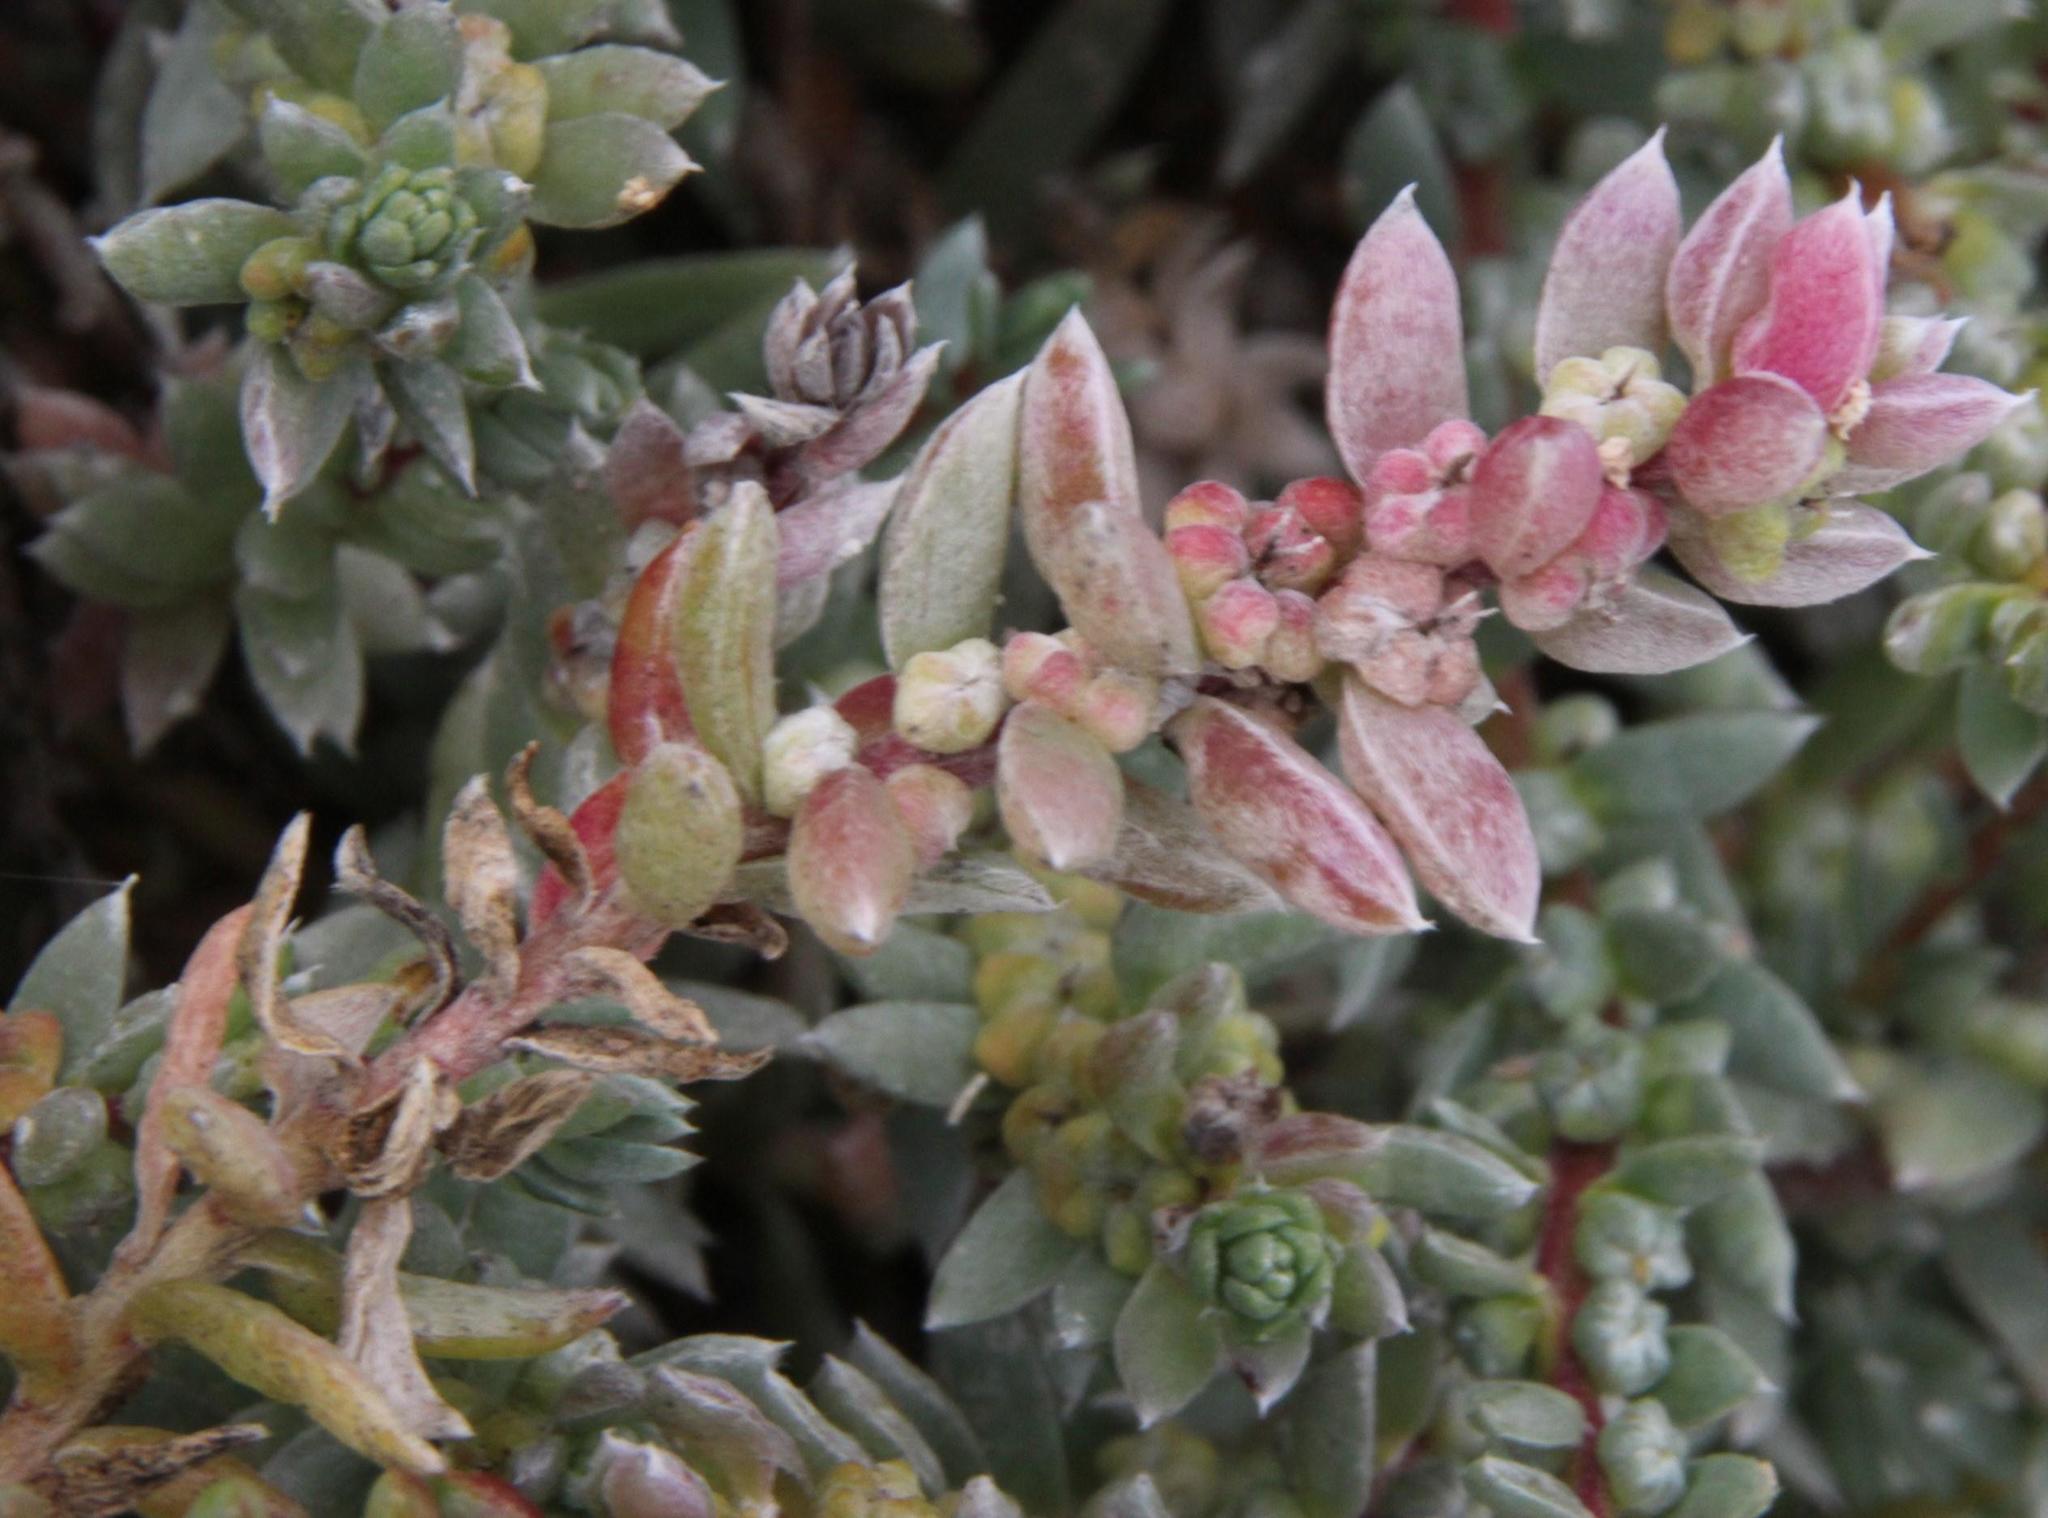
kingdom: Plantae
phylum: Tracheophyta
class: Magnoliopsida
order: Caryophyllales
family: Amaranthaceae
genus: Chenolea
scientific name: Chenolea diffusa
